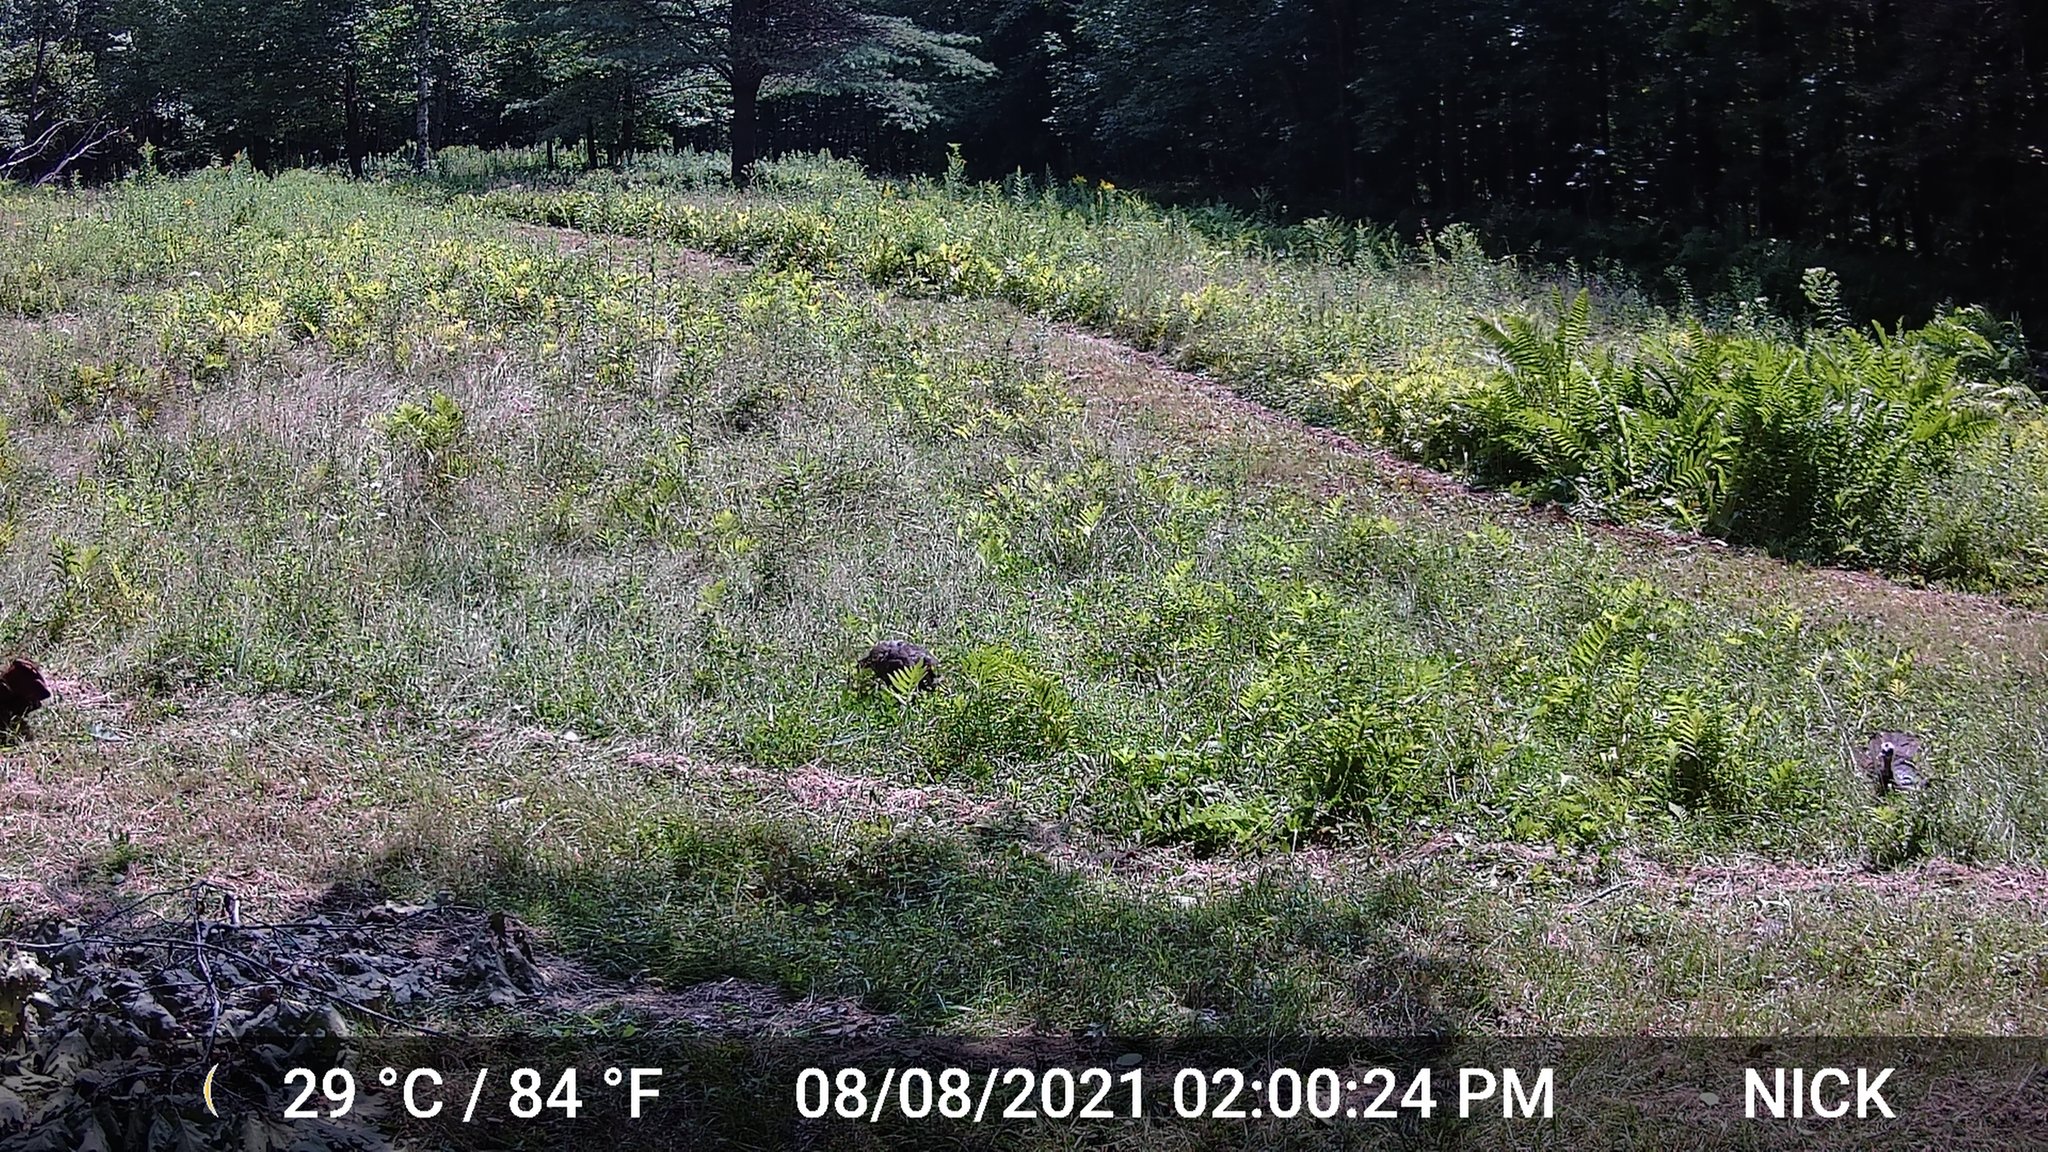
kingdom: Animalia
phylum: Chordata
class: Aves
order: Galliformes
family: Phasianidae
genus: Meleagris
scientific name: Meleagris gallopavo
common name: Wild turkey
